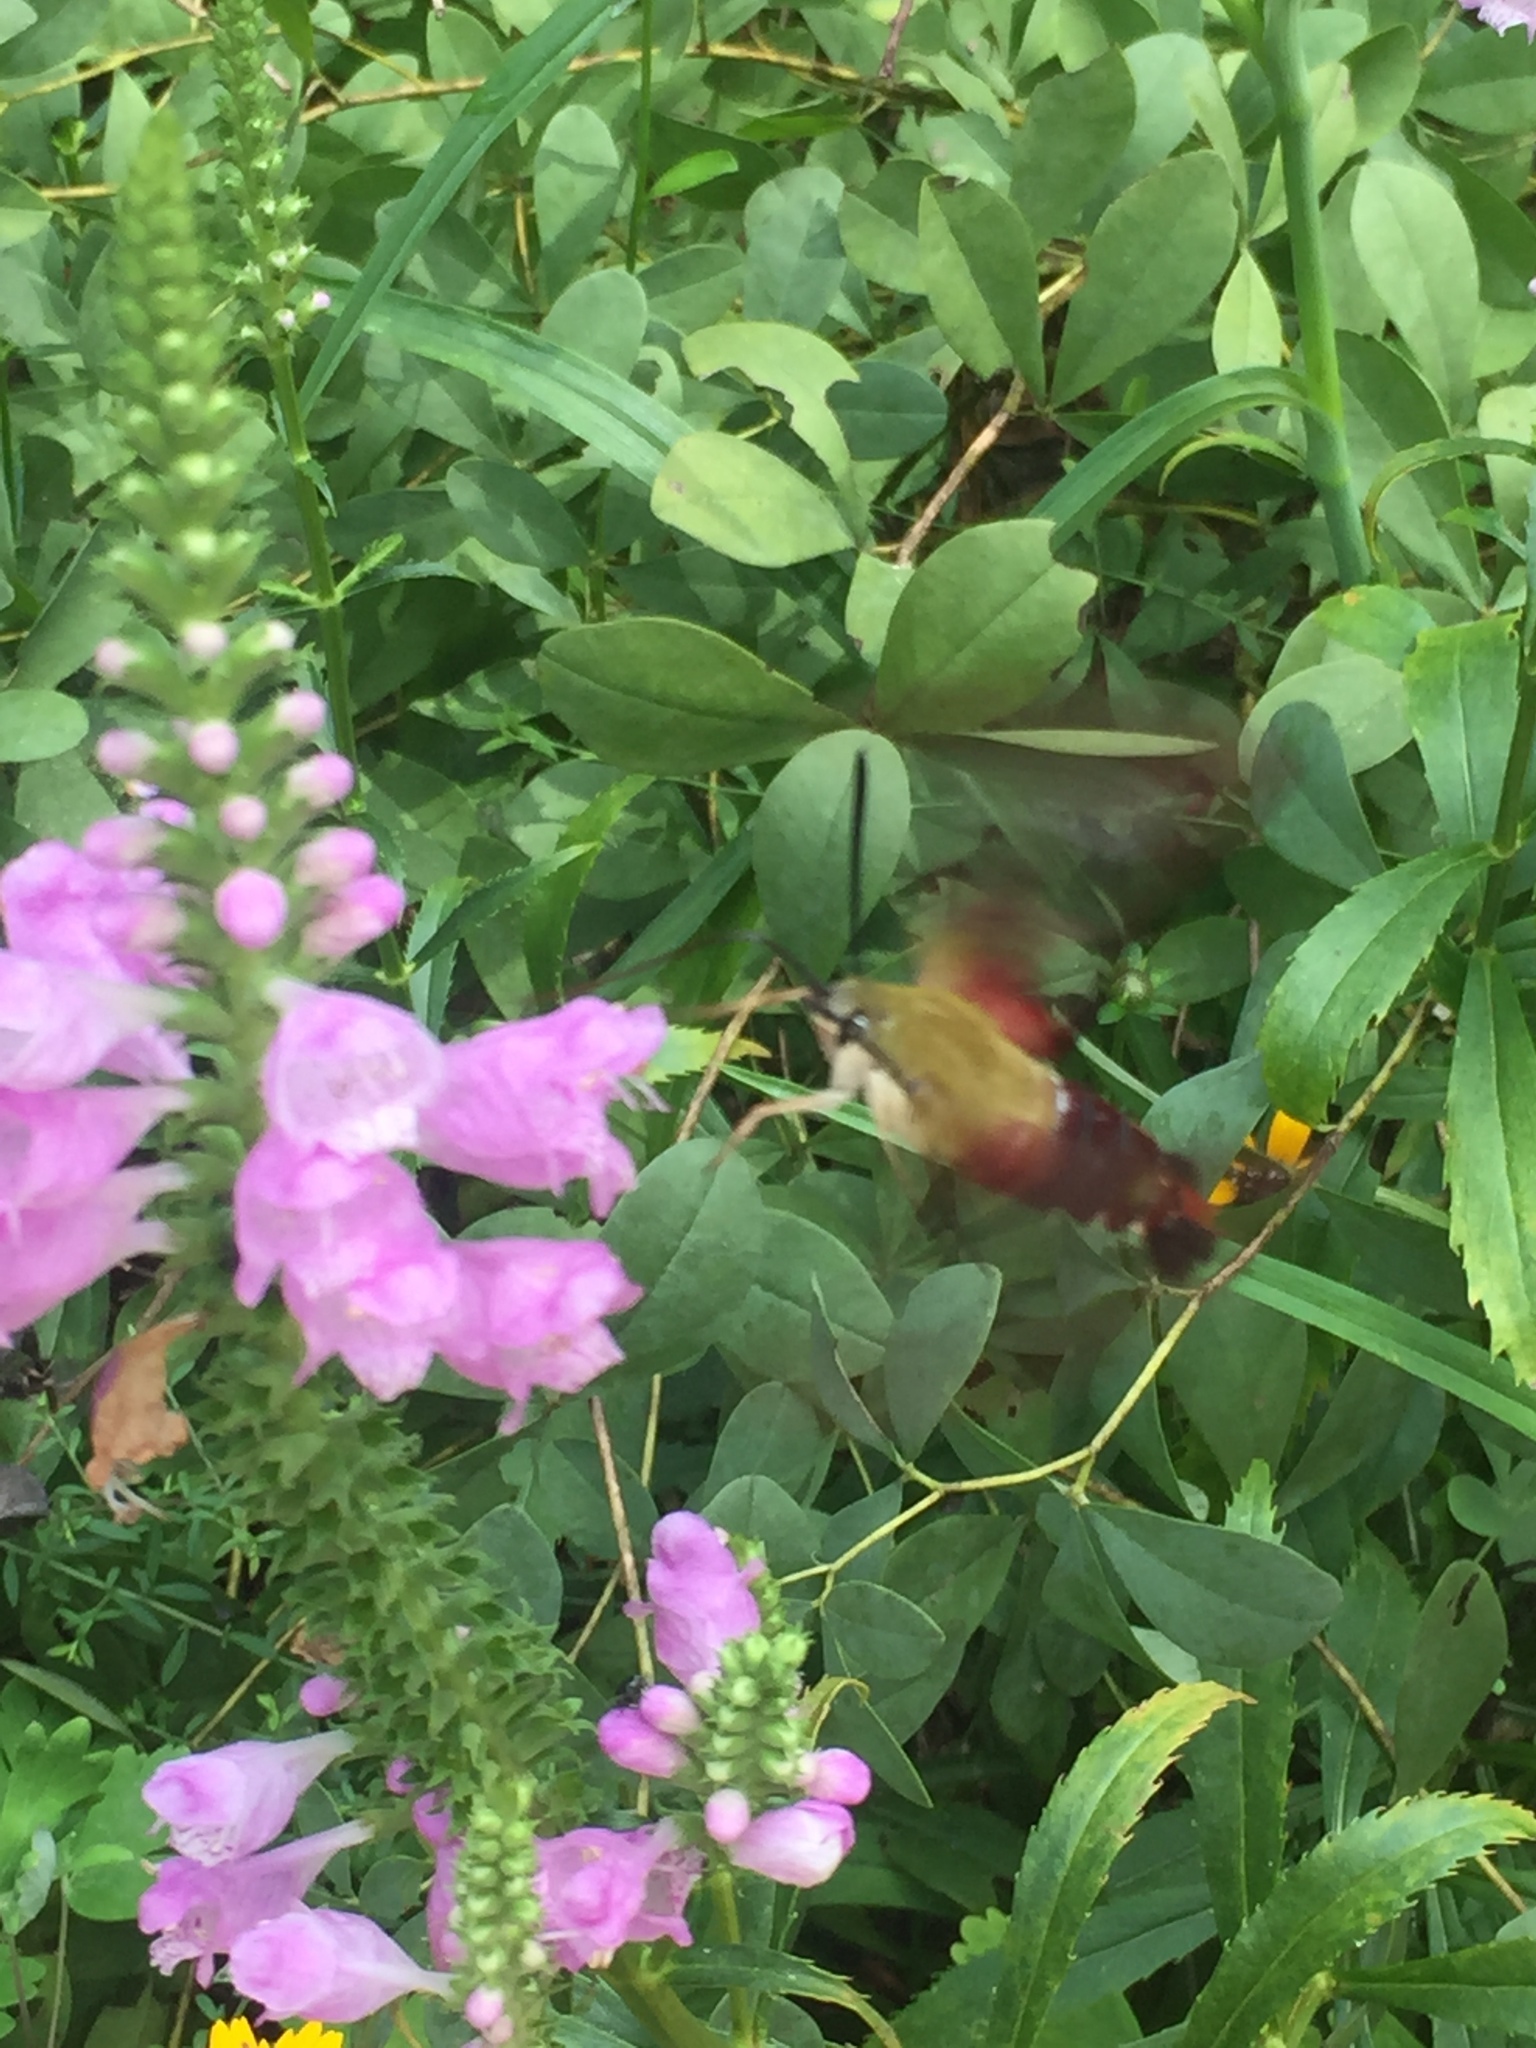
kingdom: Animalia
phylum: Arthropoda
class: Insecta
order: Lepidoptera
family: Sphingidae
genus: Hemaris
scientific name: Hemaris thysbe
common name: Common clear-wing
